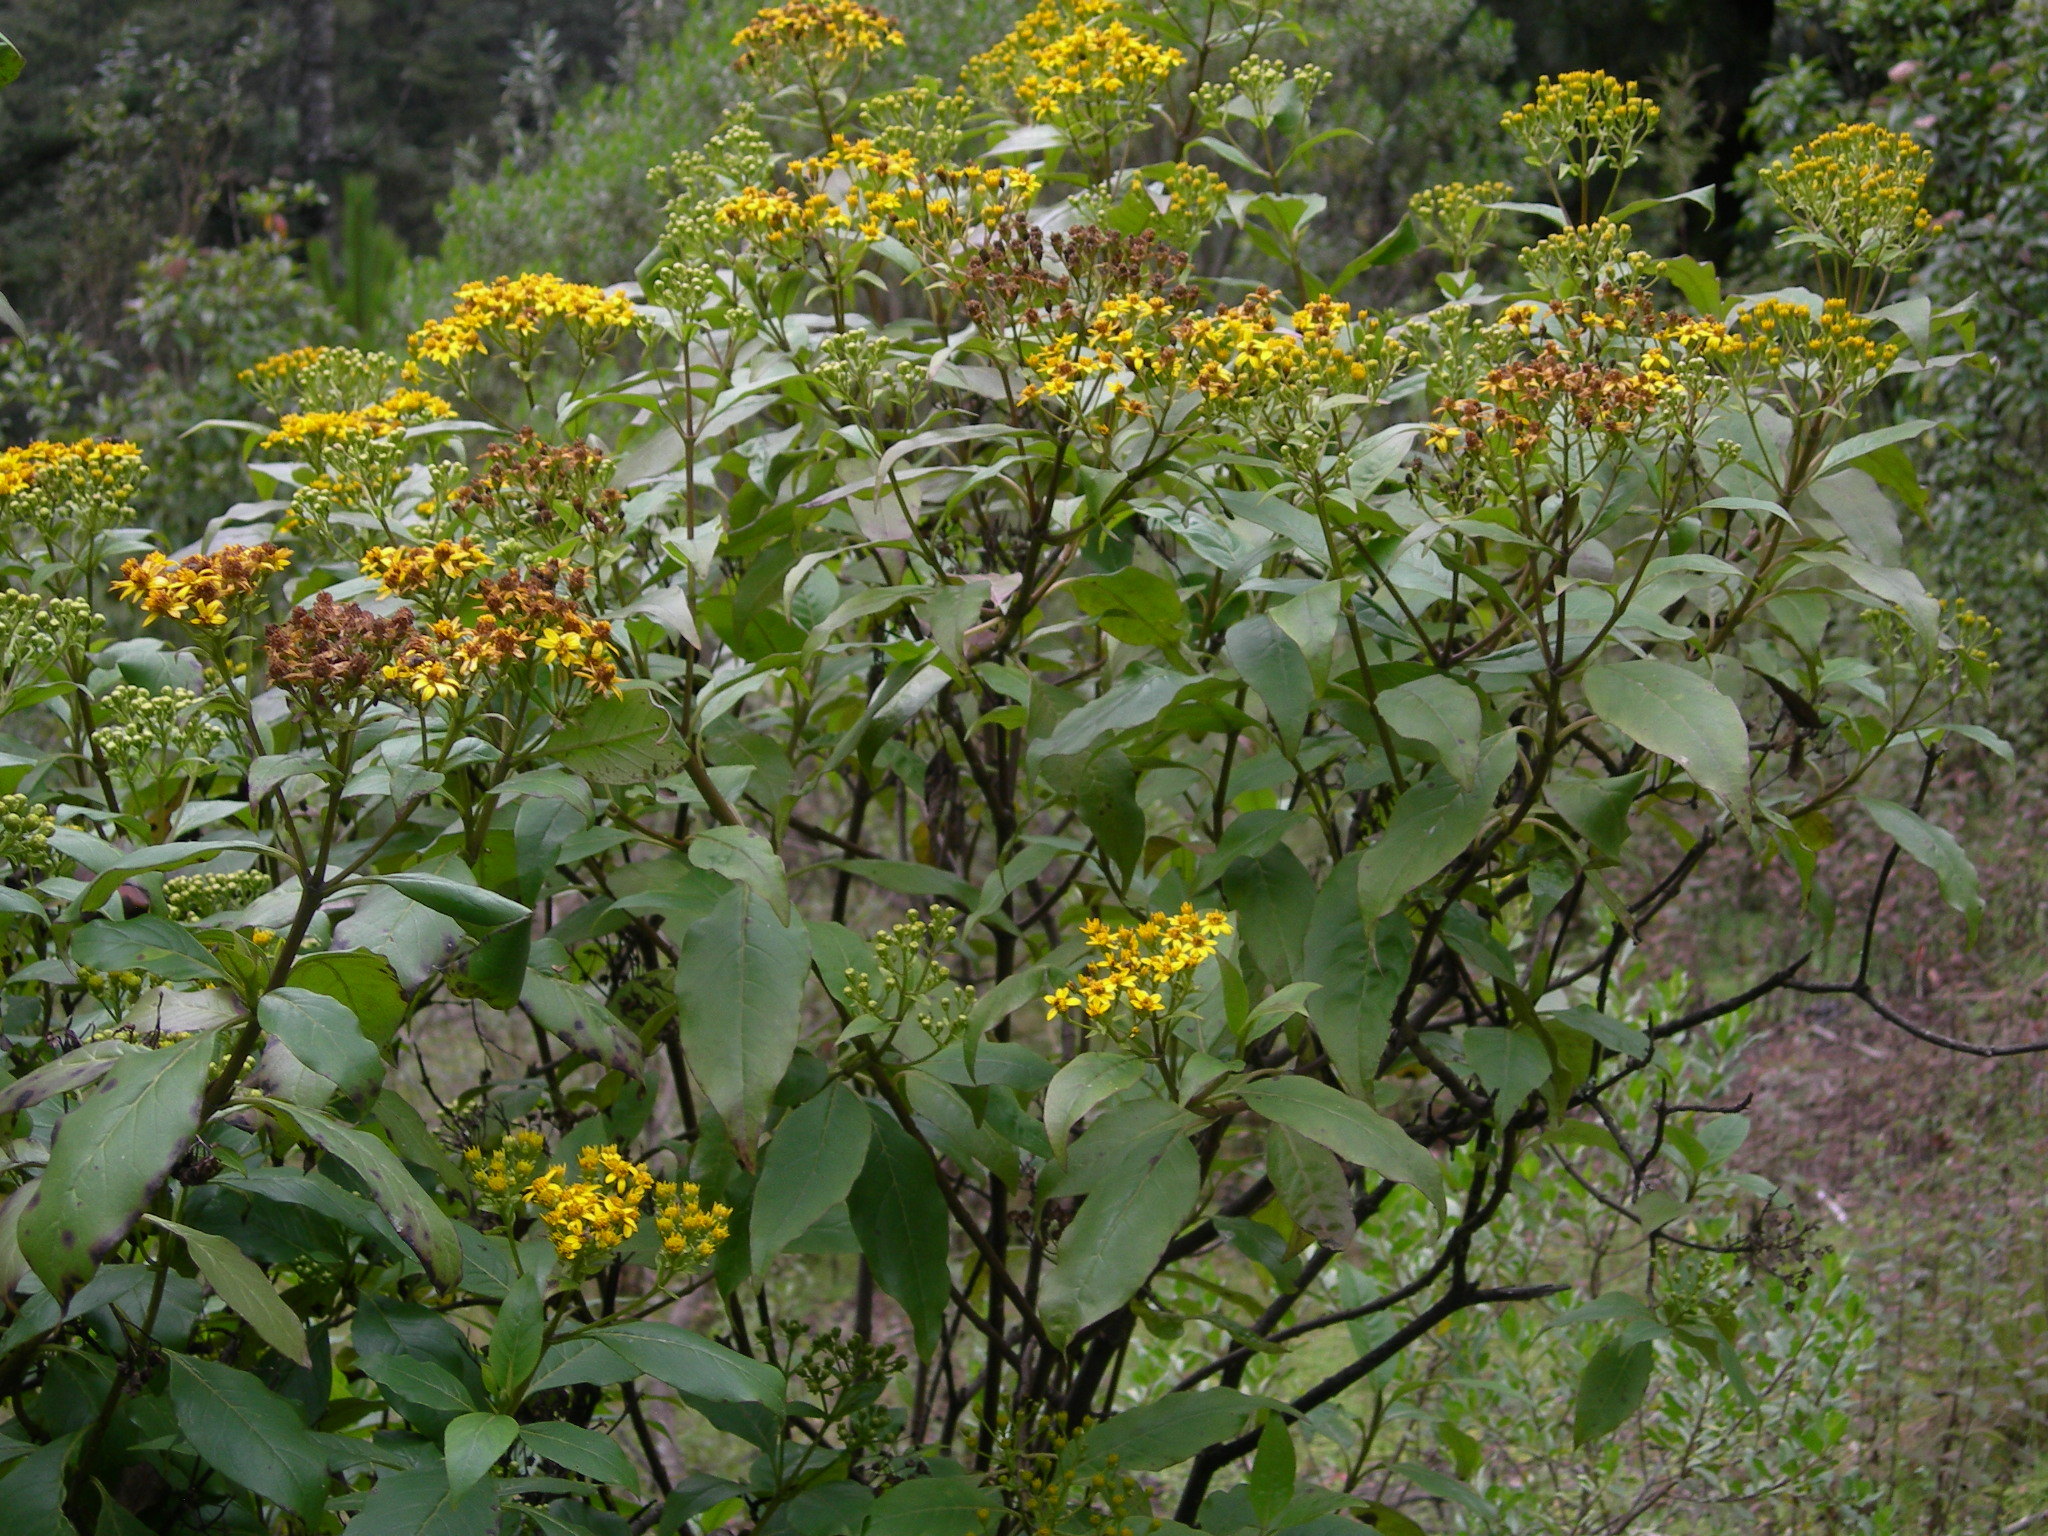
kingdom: Plantae
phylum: Tracheophyta
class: Magnoliopsida
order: Asterales
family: Asteraceae
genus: Verbesina
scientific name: Verbesina apleura
